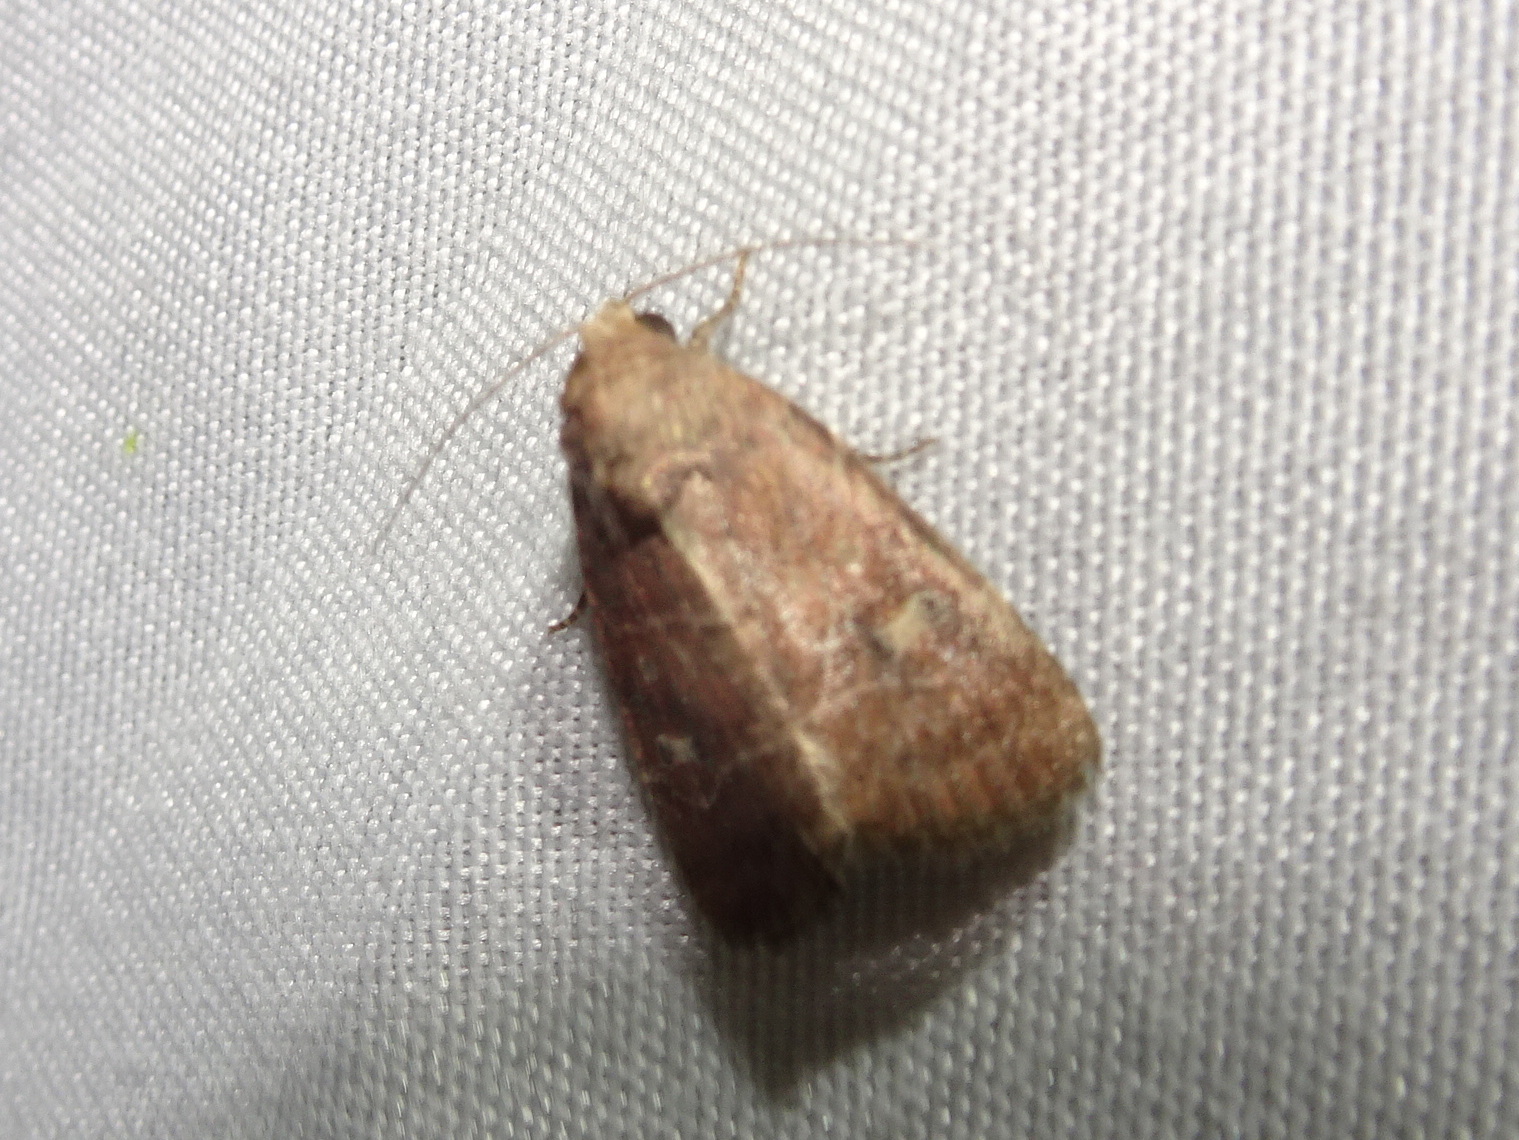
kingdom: Animalia
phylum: Arthropoda
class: Insecta
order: Lepidoptera
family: Noctuidae
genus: Elaphria
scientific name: Elaphria grata
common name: Grateful midget moth
